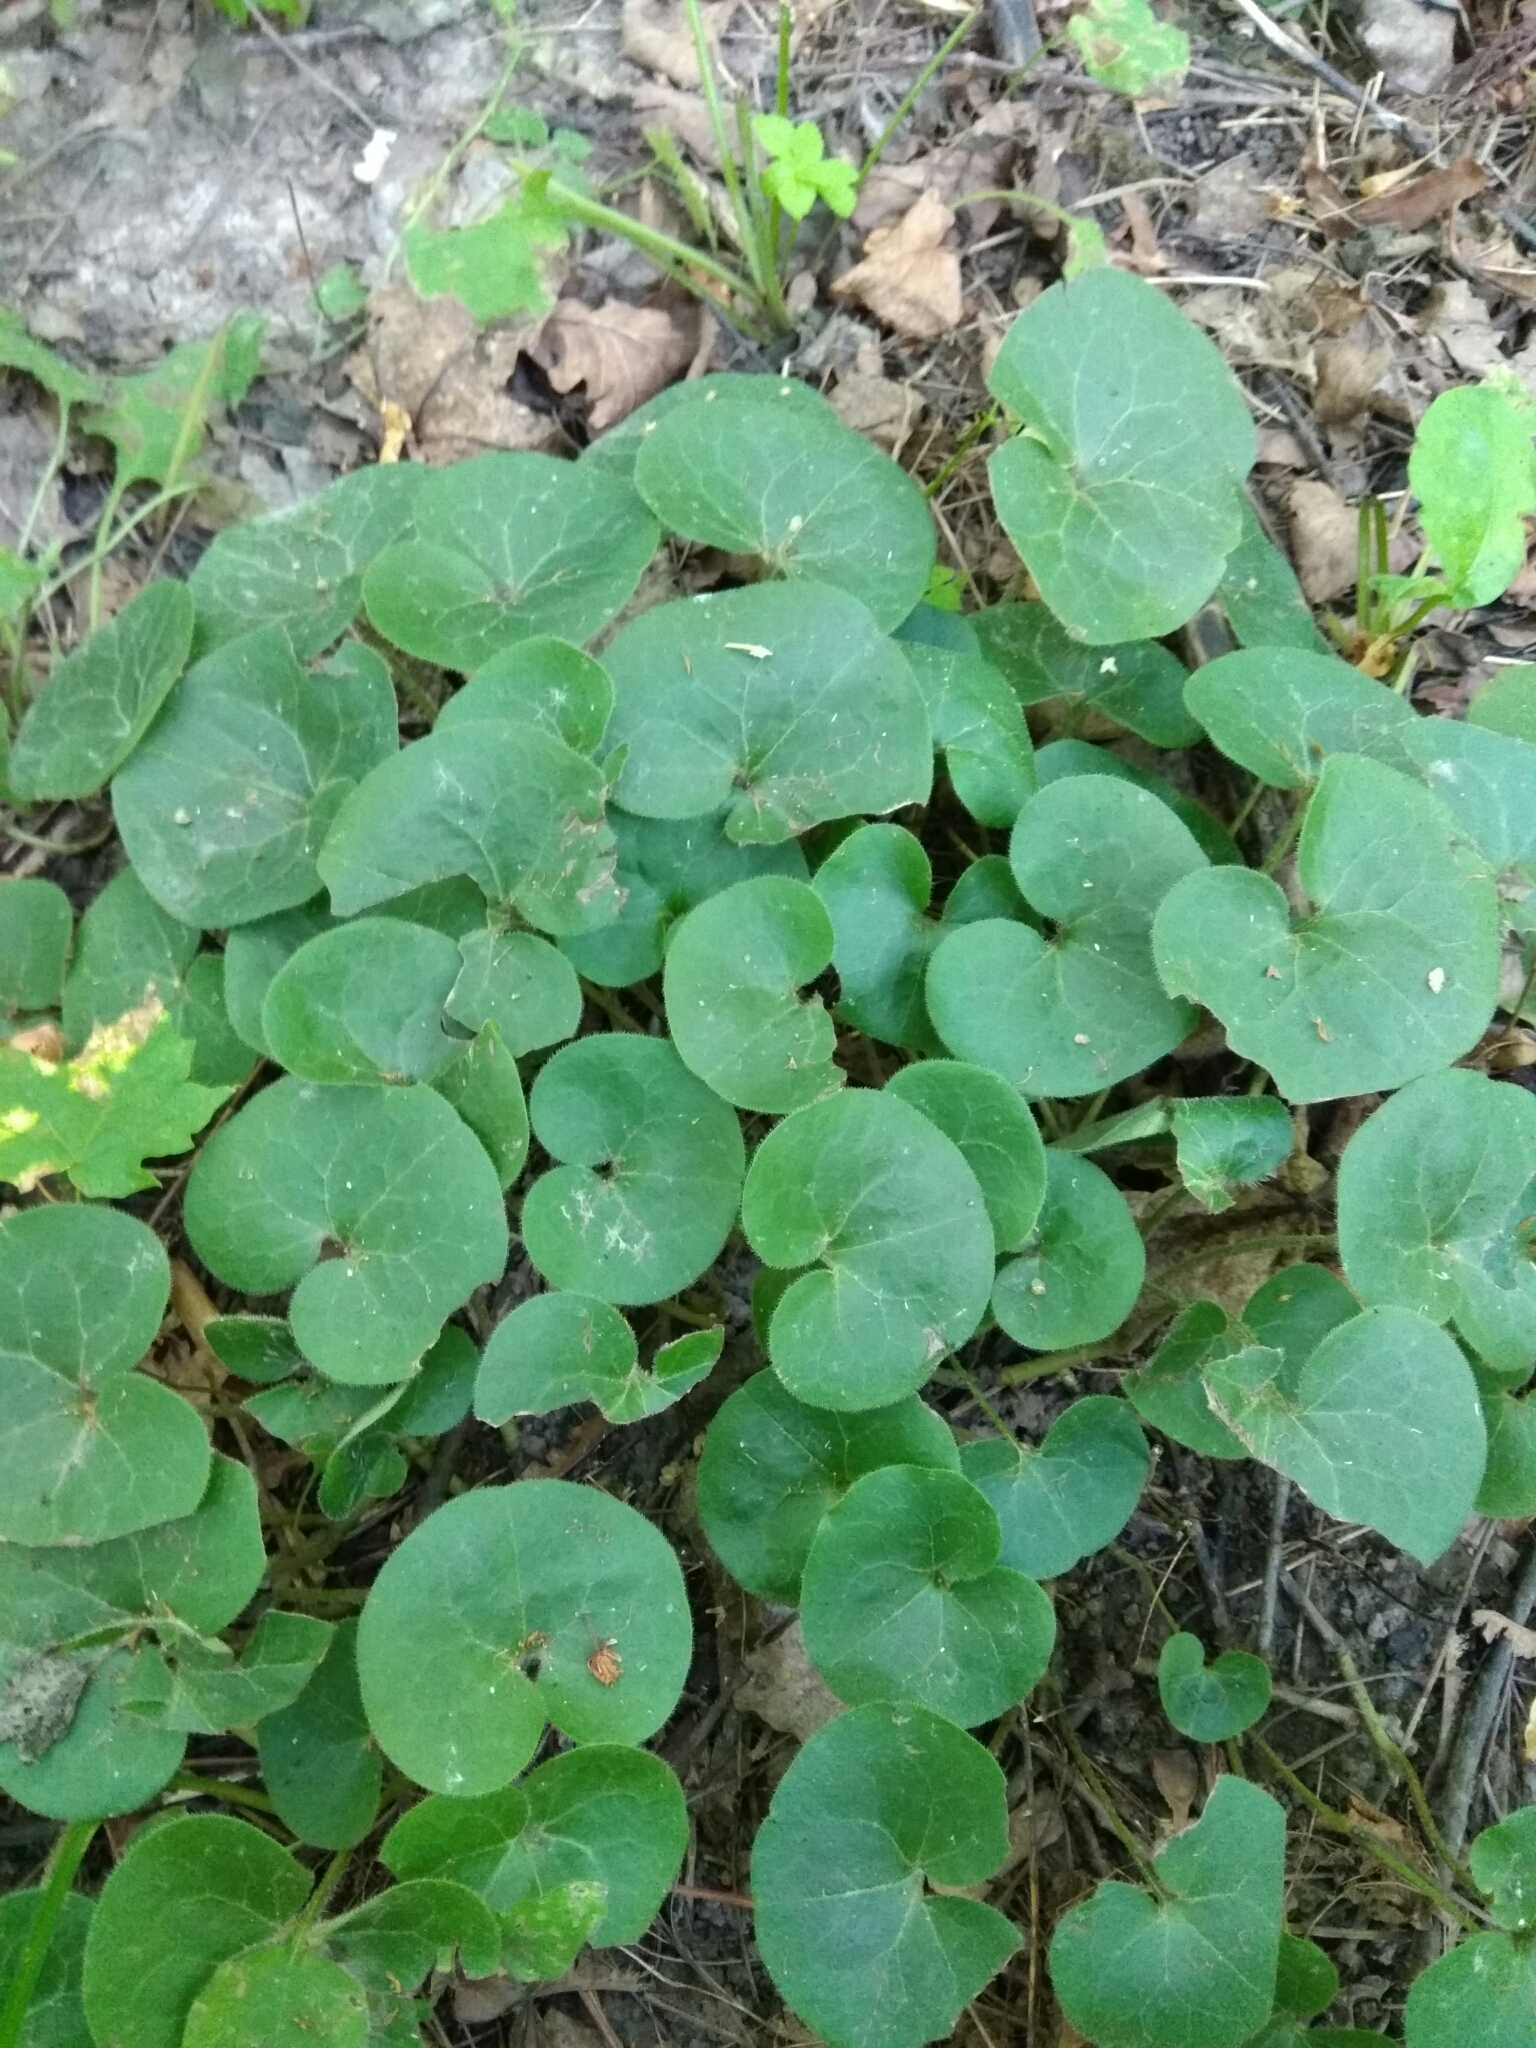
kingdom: Plantae
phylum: Tracheophyta
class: Magnoliopsida
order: Piperales
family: Aristolochiaceae
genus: Asarum
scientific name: Asarum europaeum
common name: Asarabacca
